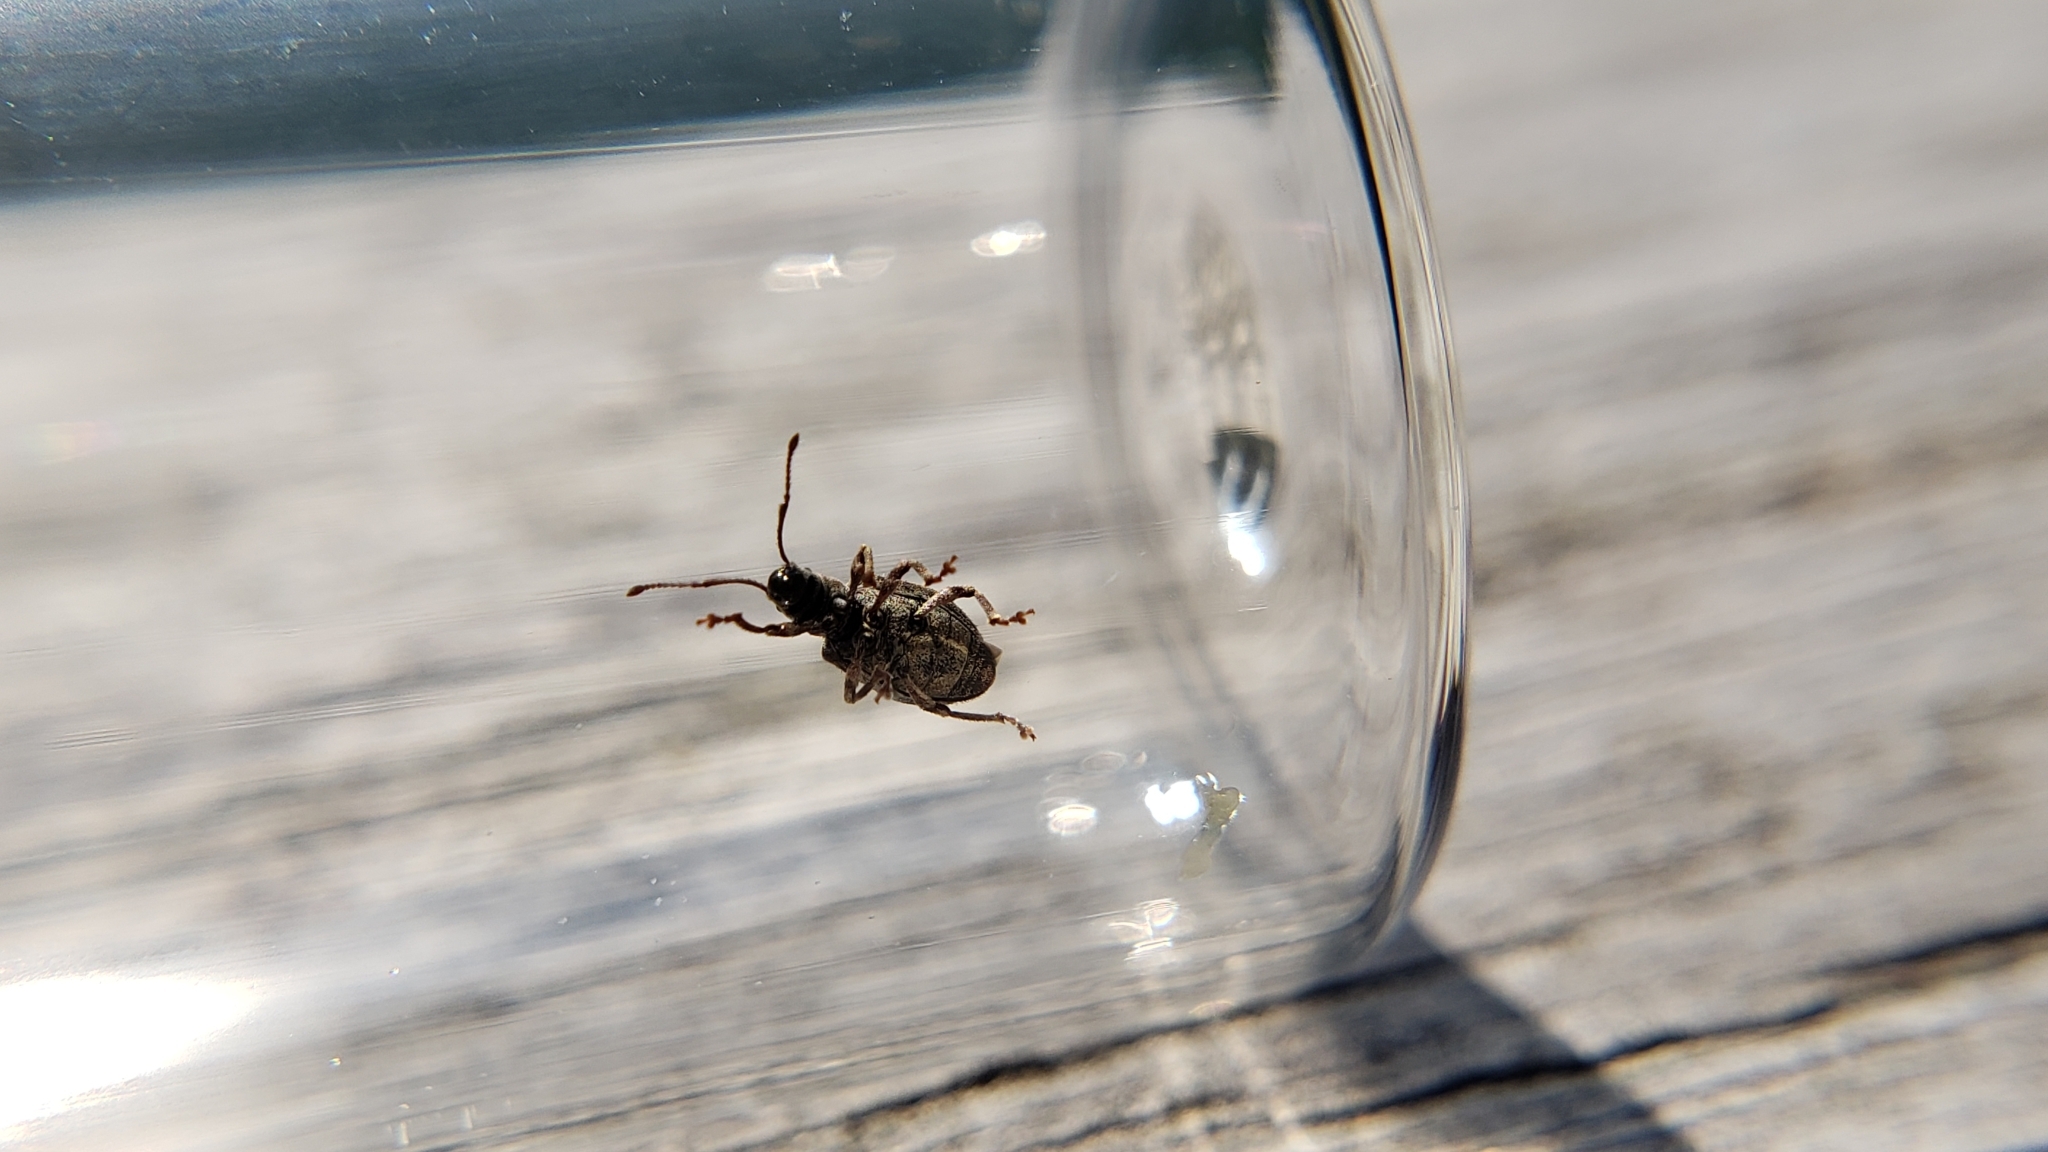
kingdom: Animalia
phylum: Arthropoda
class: Insecta
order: Coleoptera
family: Curculionidae
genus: Pseudoedophrys
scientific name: Pseudoedophrys hilleri
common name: Weevil
